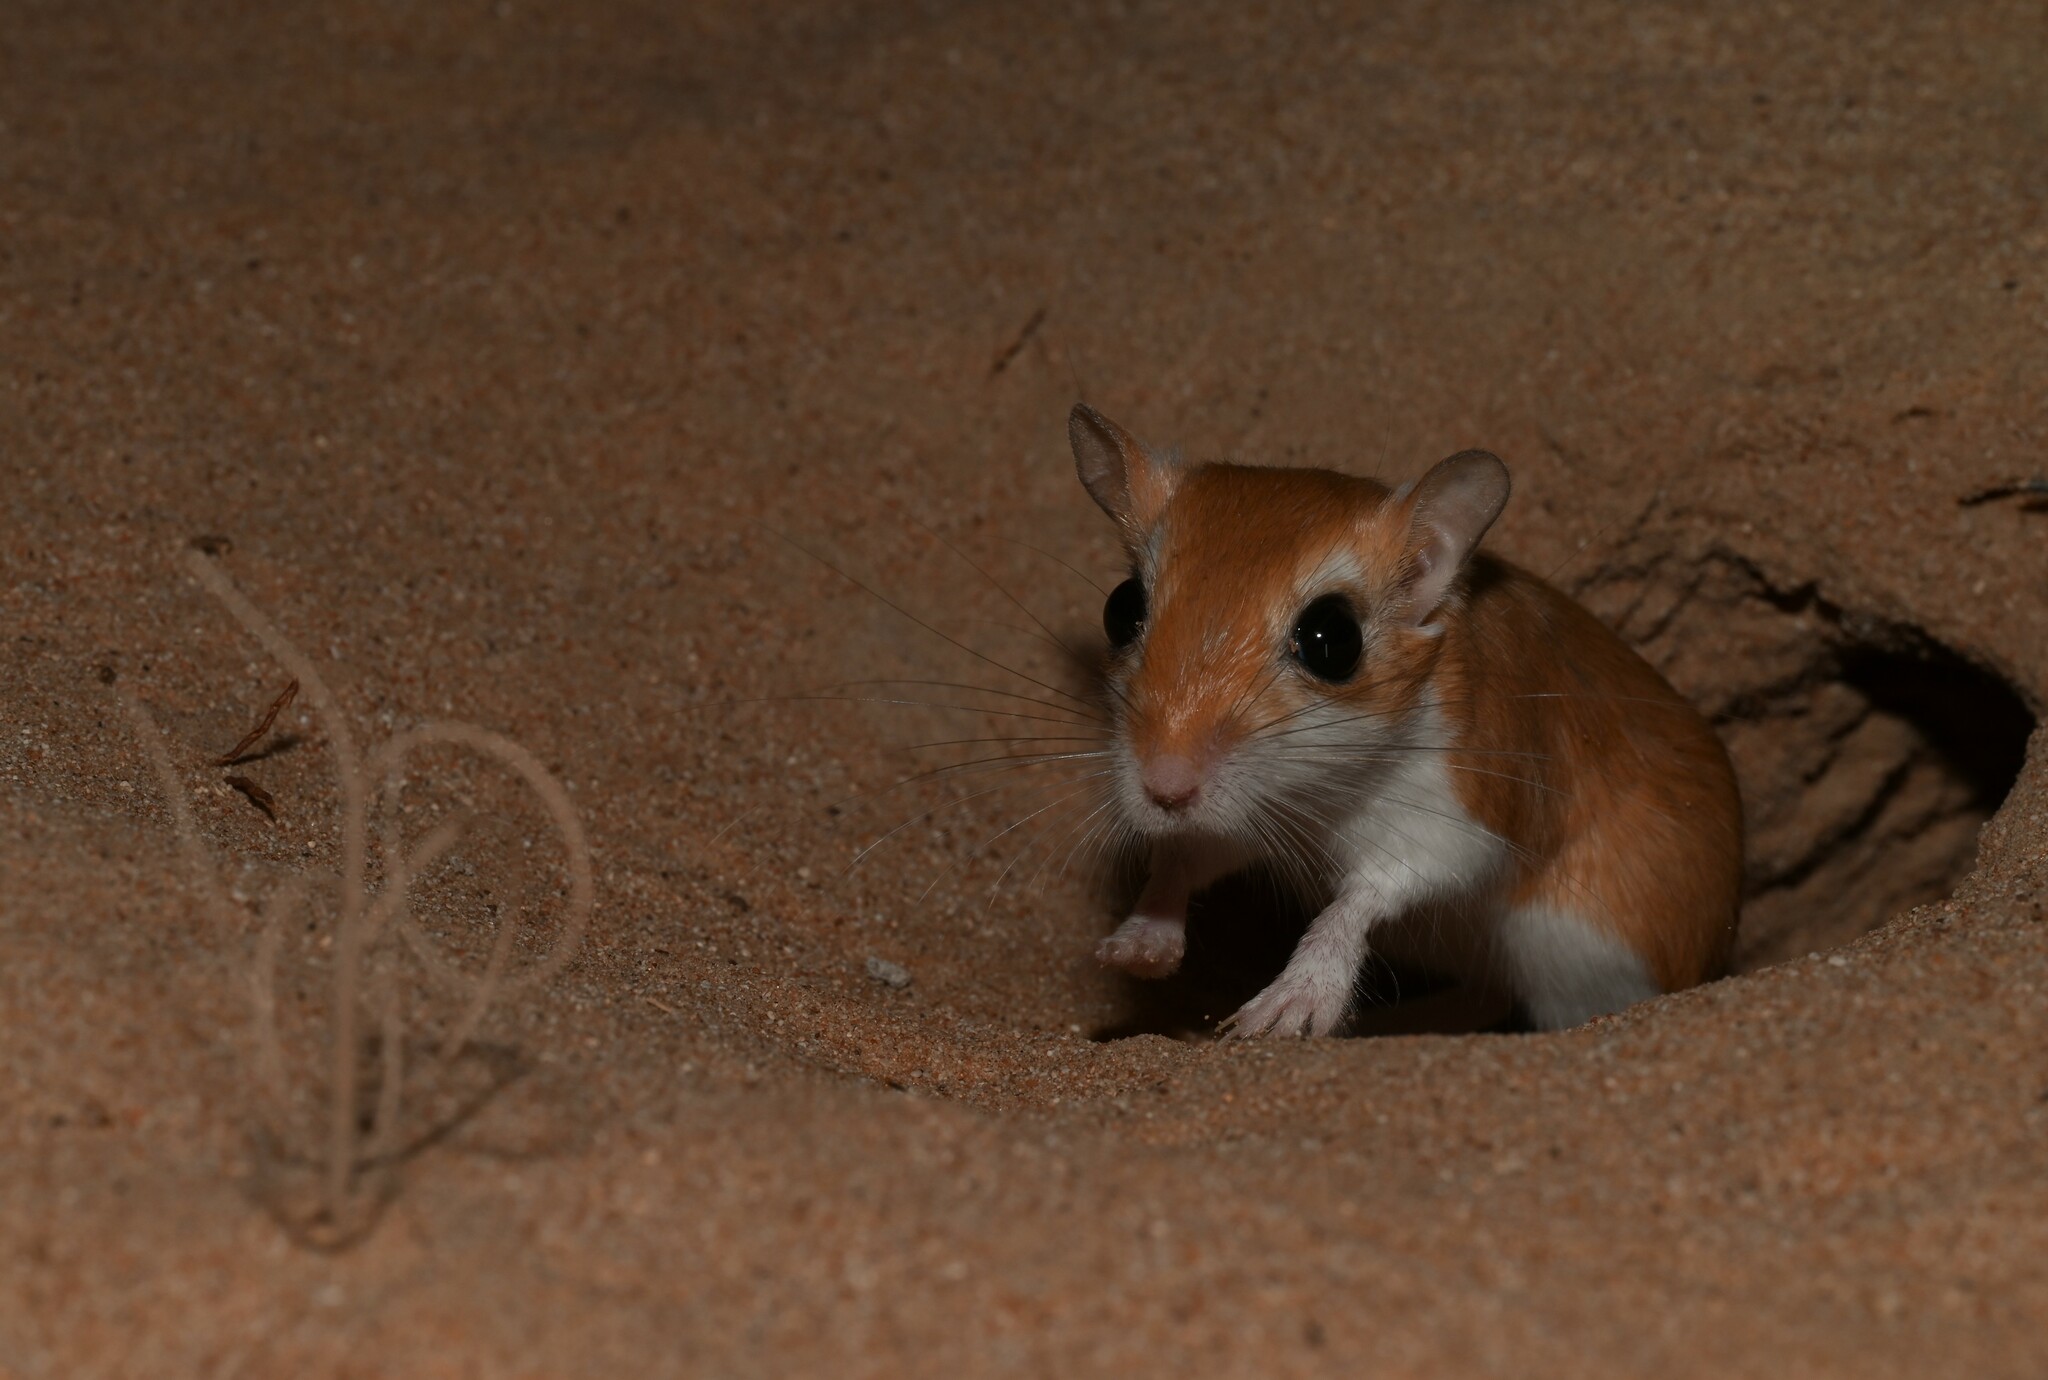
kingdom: Animalia
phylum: Chordata
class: Mammalia
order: Rodentia
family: Muridae
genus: Gerbillus
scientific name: Gerbillus cheesmani
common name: Cheesman's gerbil
